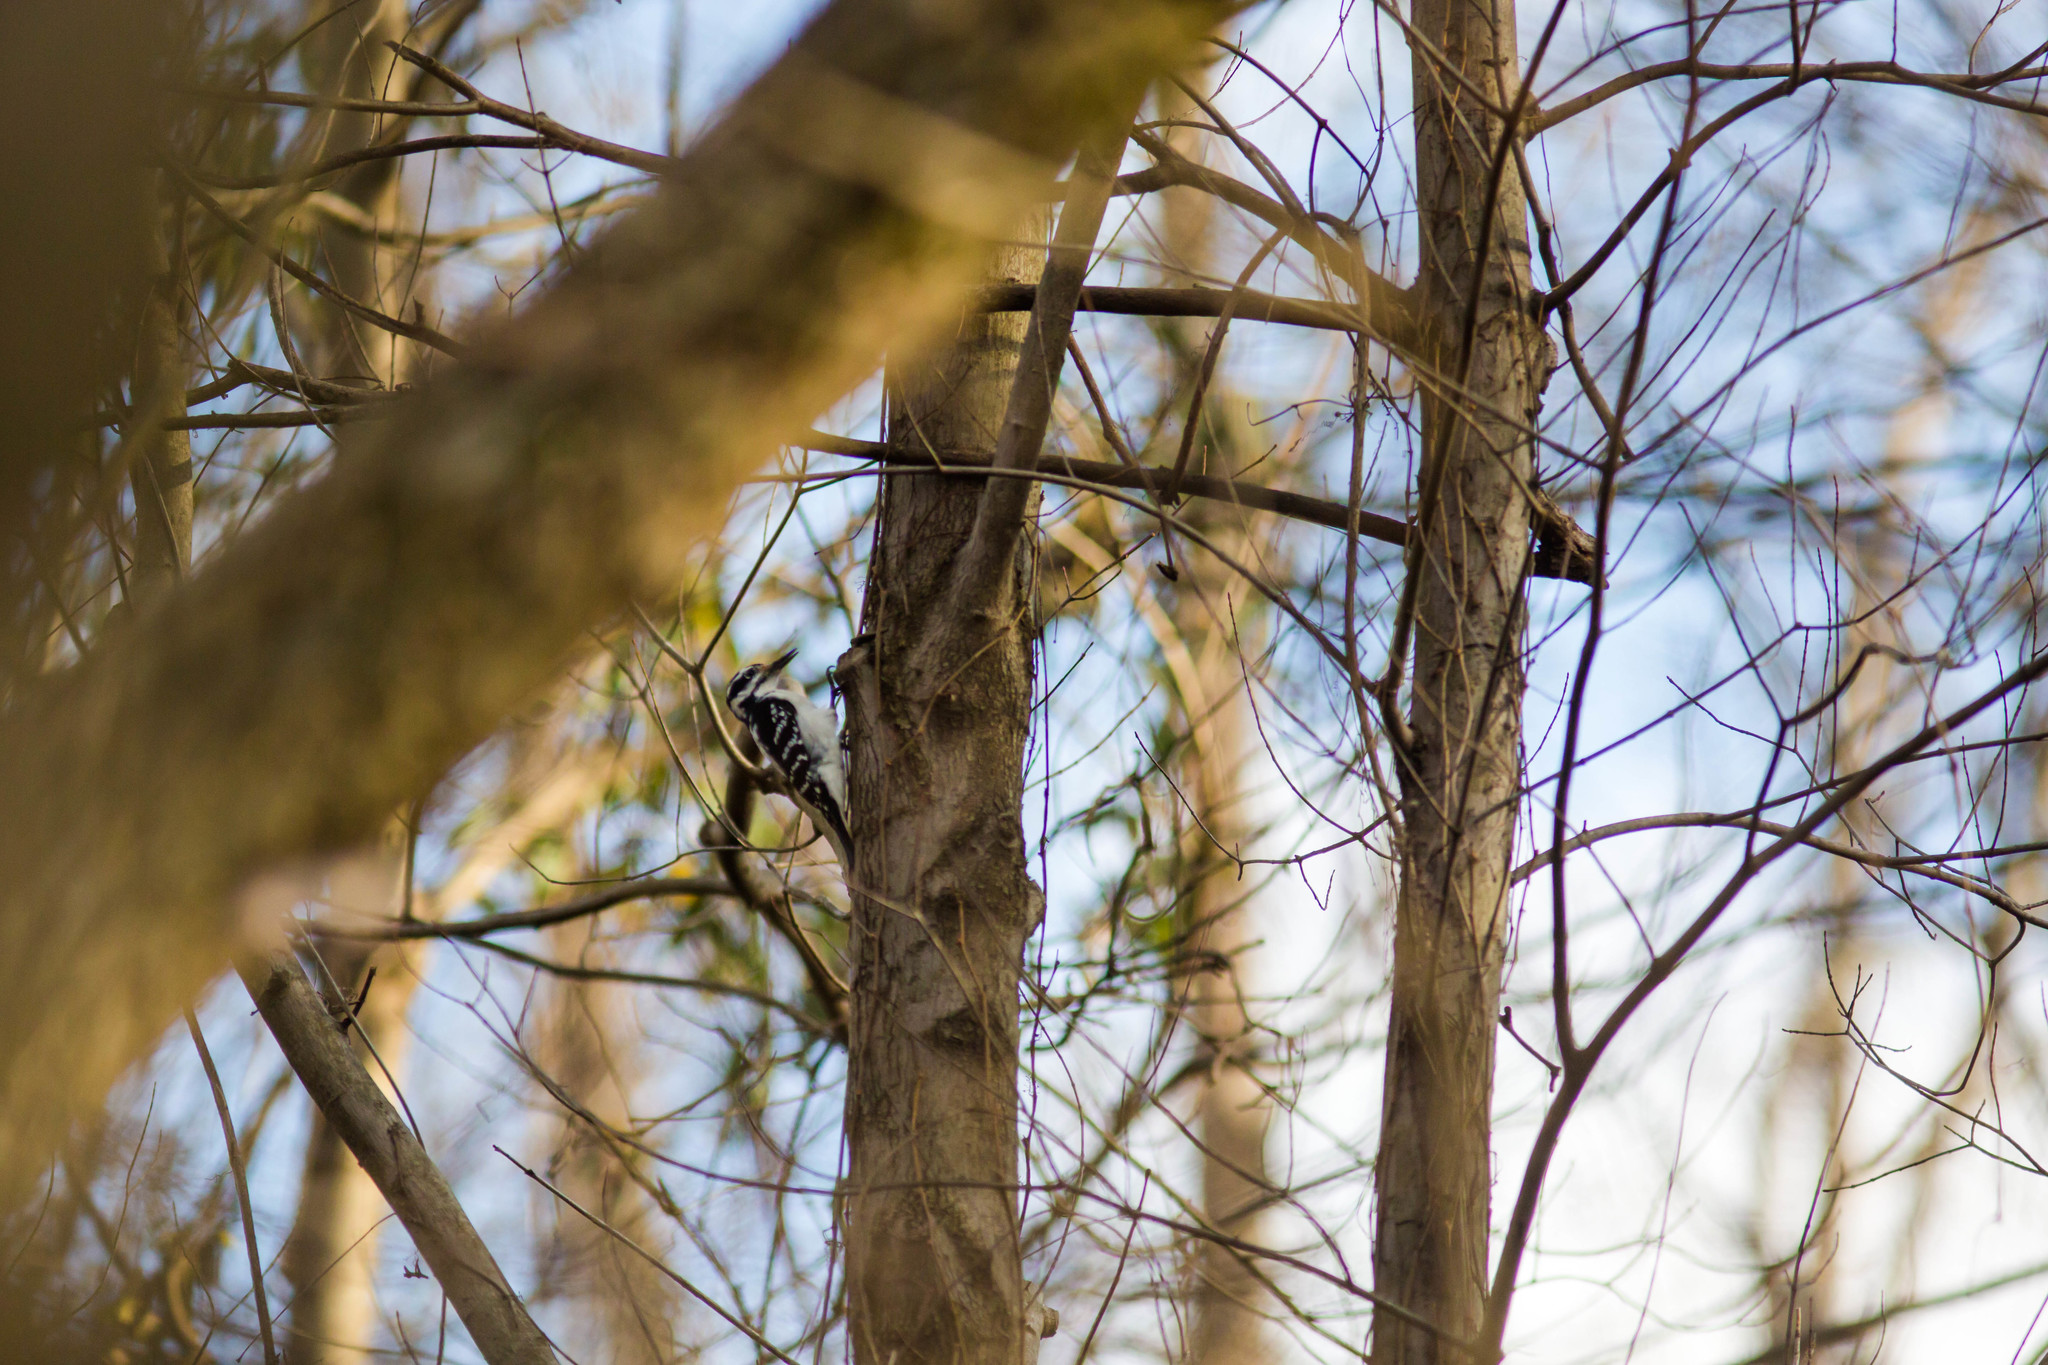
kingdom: Animalia
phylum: Chordata
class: Aves
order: Piciformes
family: Picidae
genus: Leuconotopicus
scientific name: Leuconotopicus villosus
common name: Hairy woodpecker
